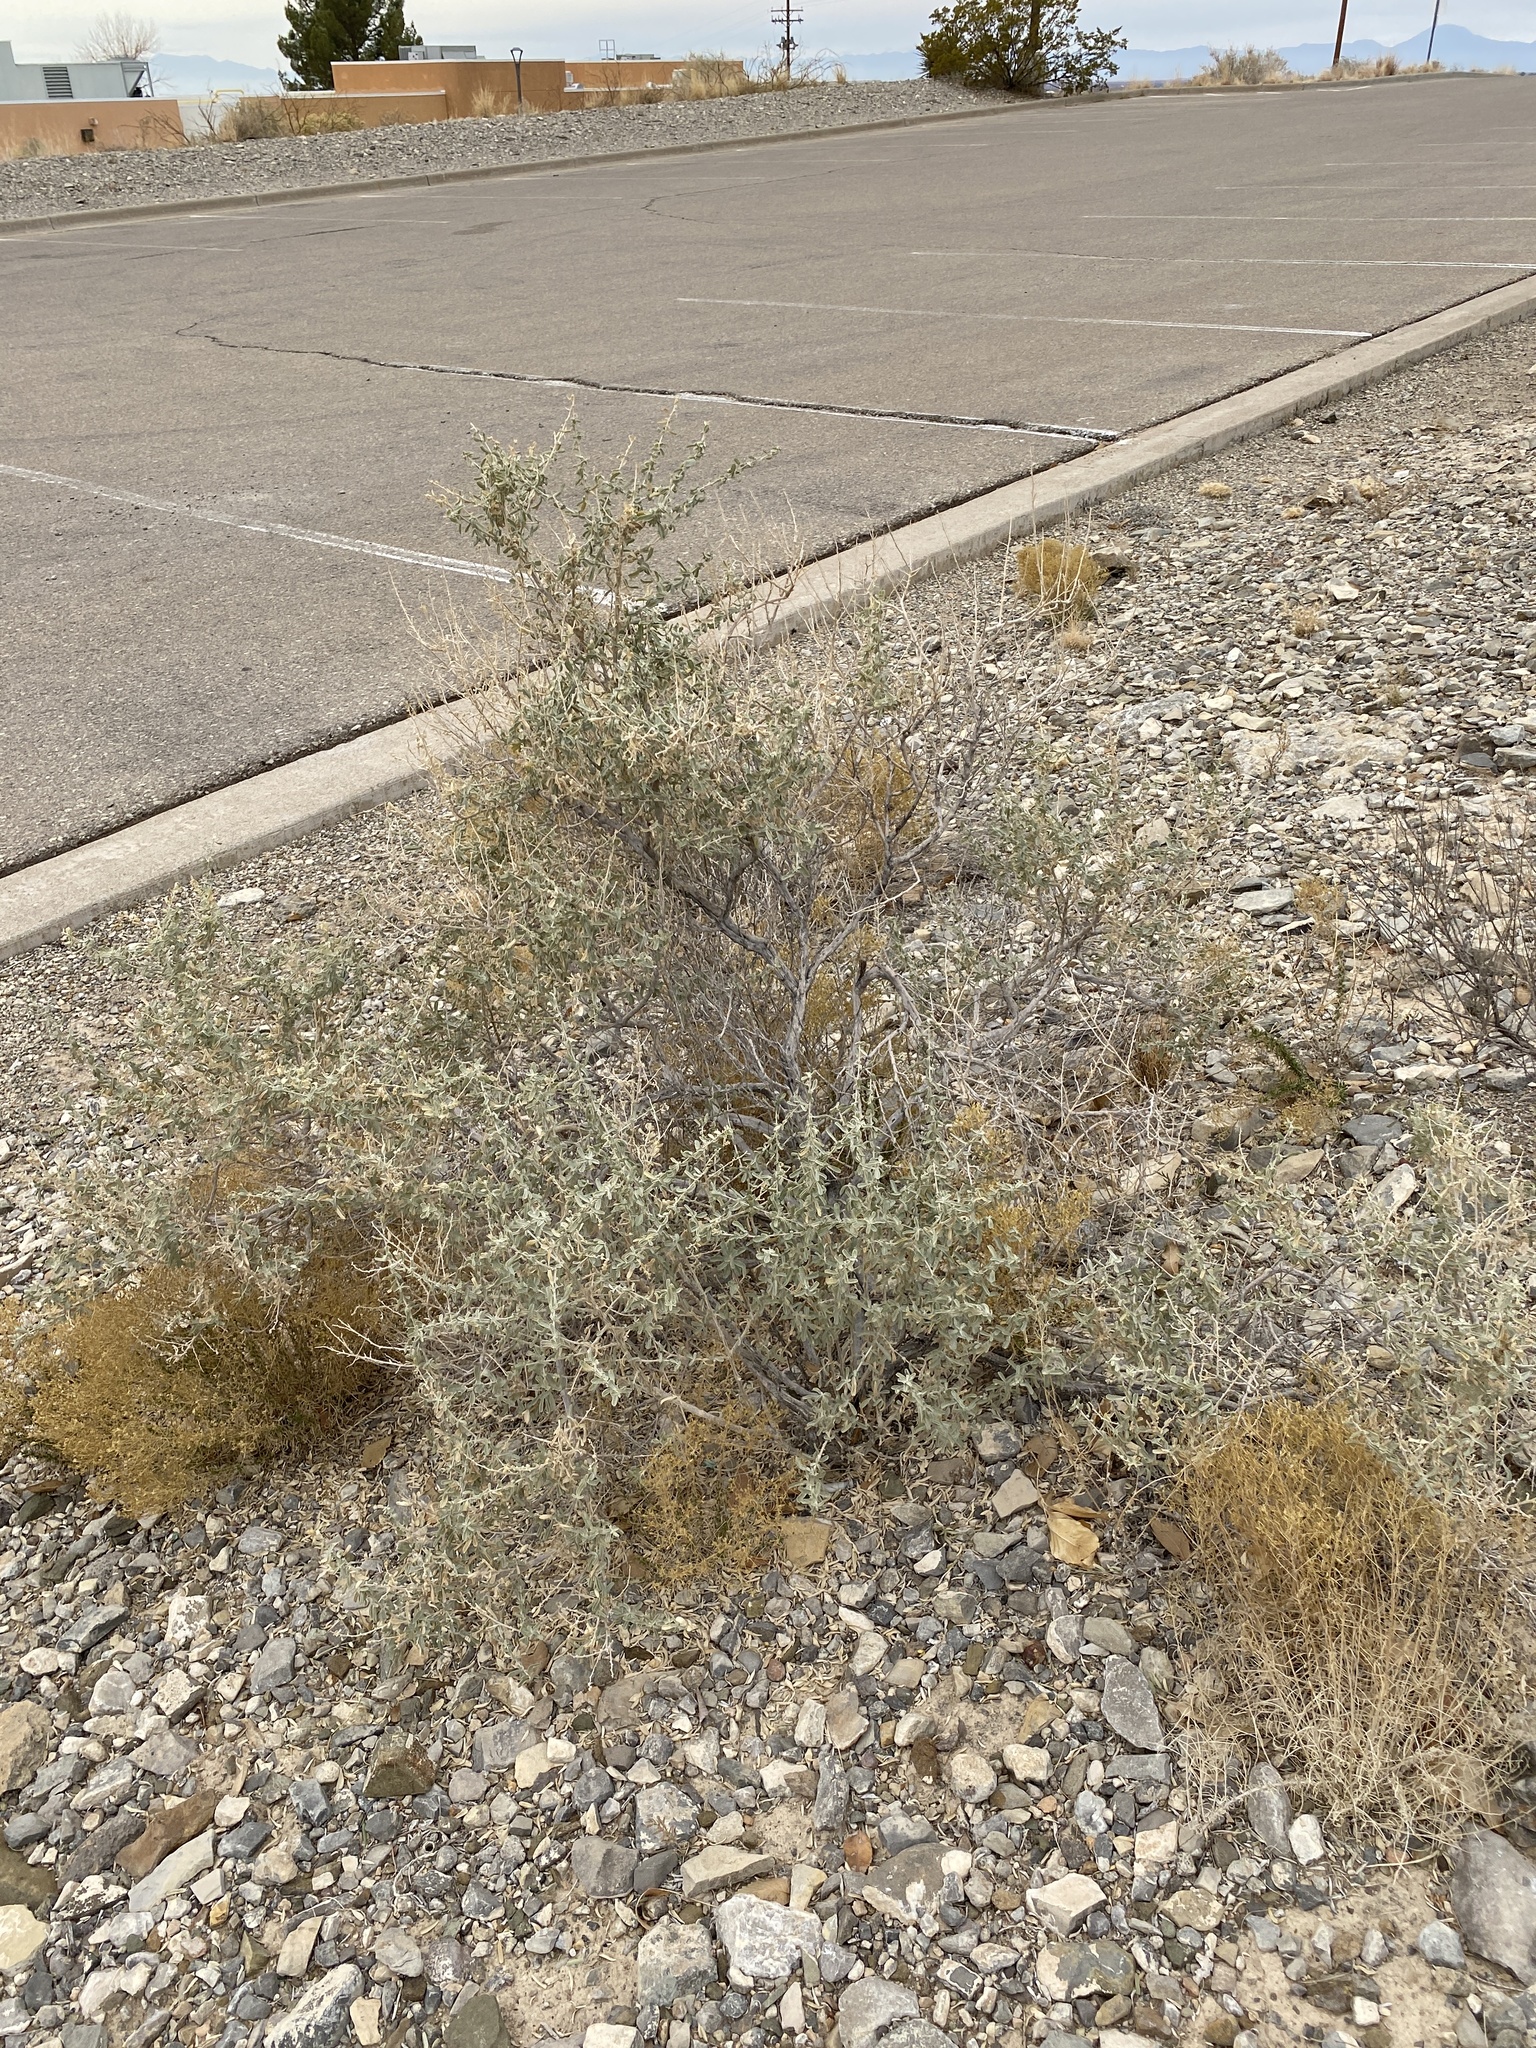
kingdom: Plantae
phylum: Tracheophyta
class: Magnoliopsida
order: Caryophyllales
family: Amaranthaceae
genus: Atriplex
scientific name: Atriplex canescens
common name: Four-wing saltbush
